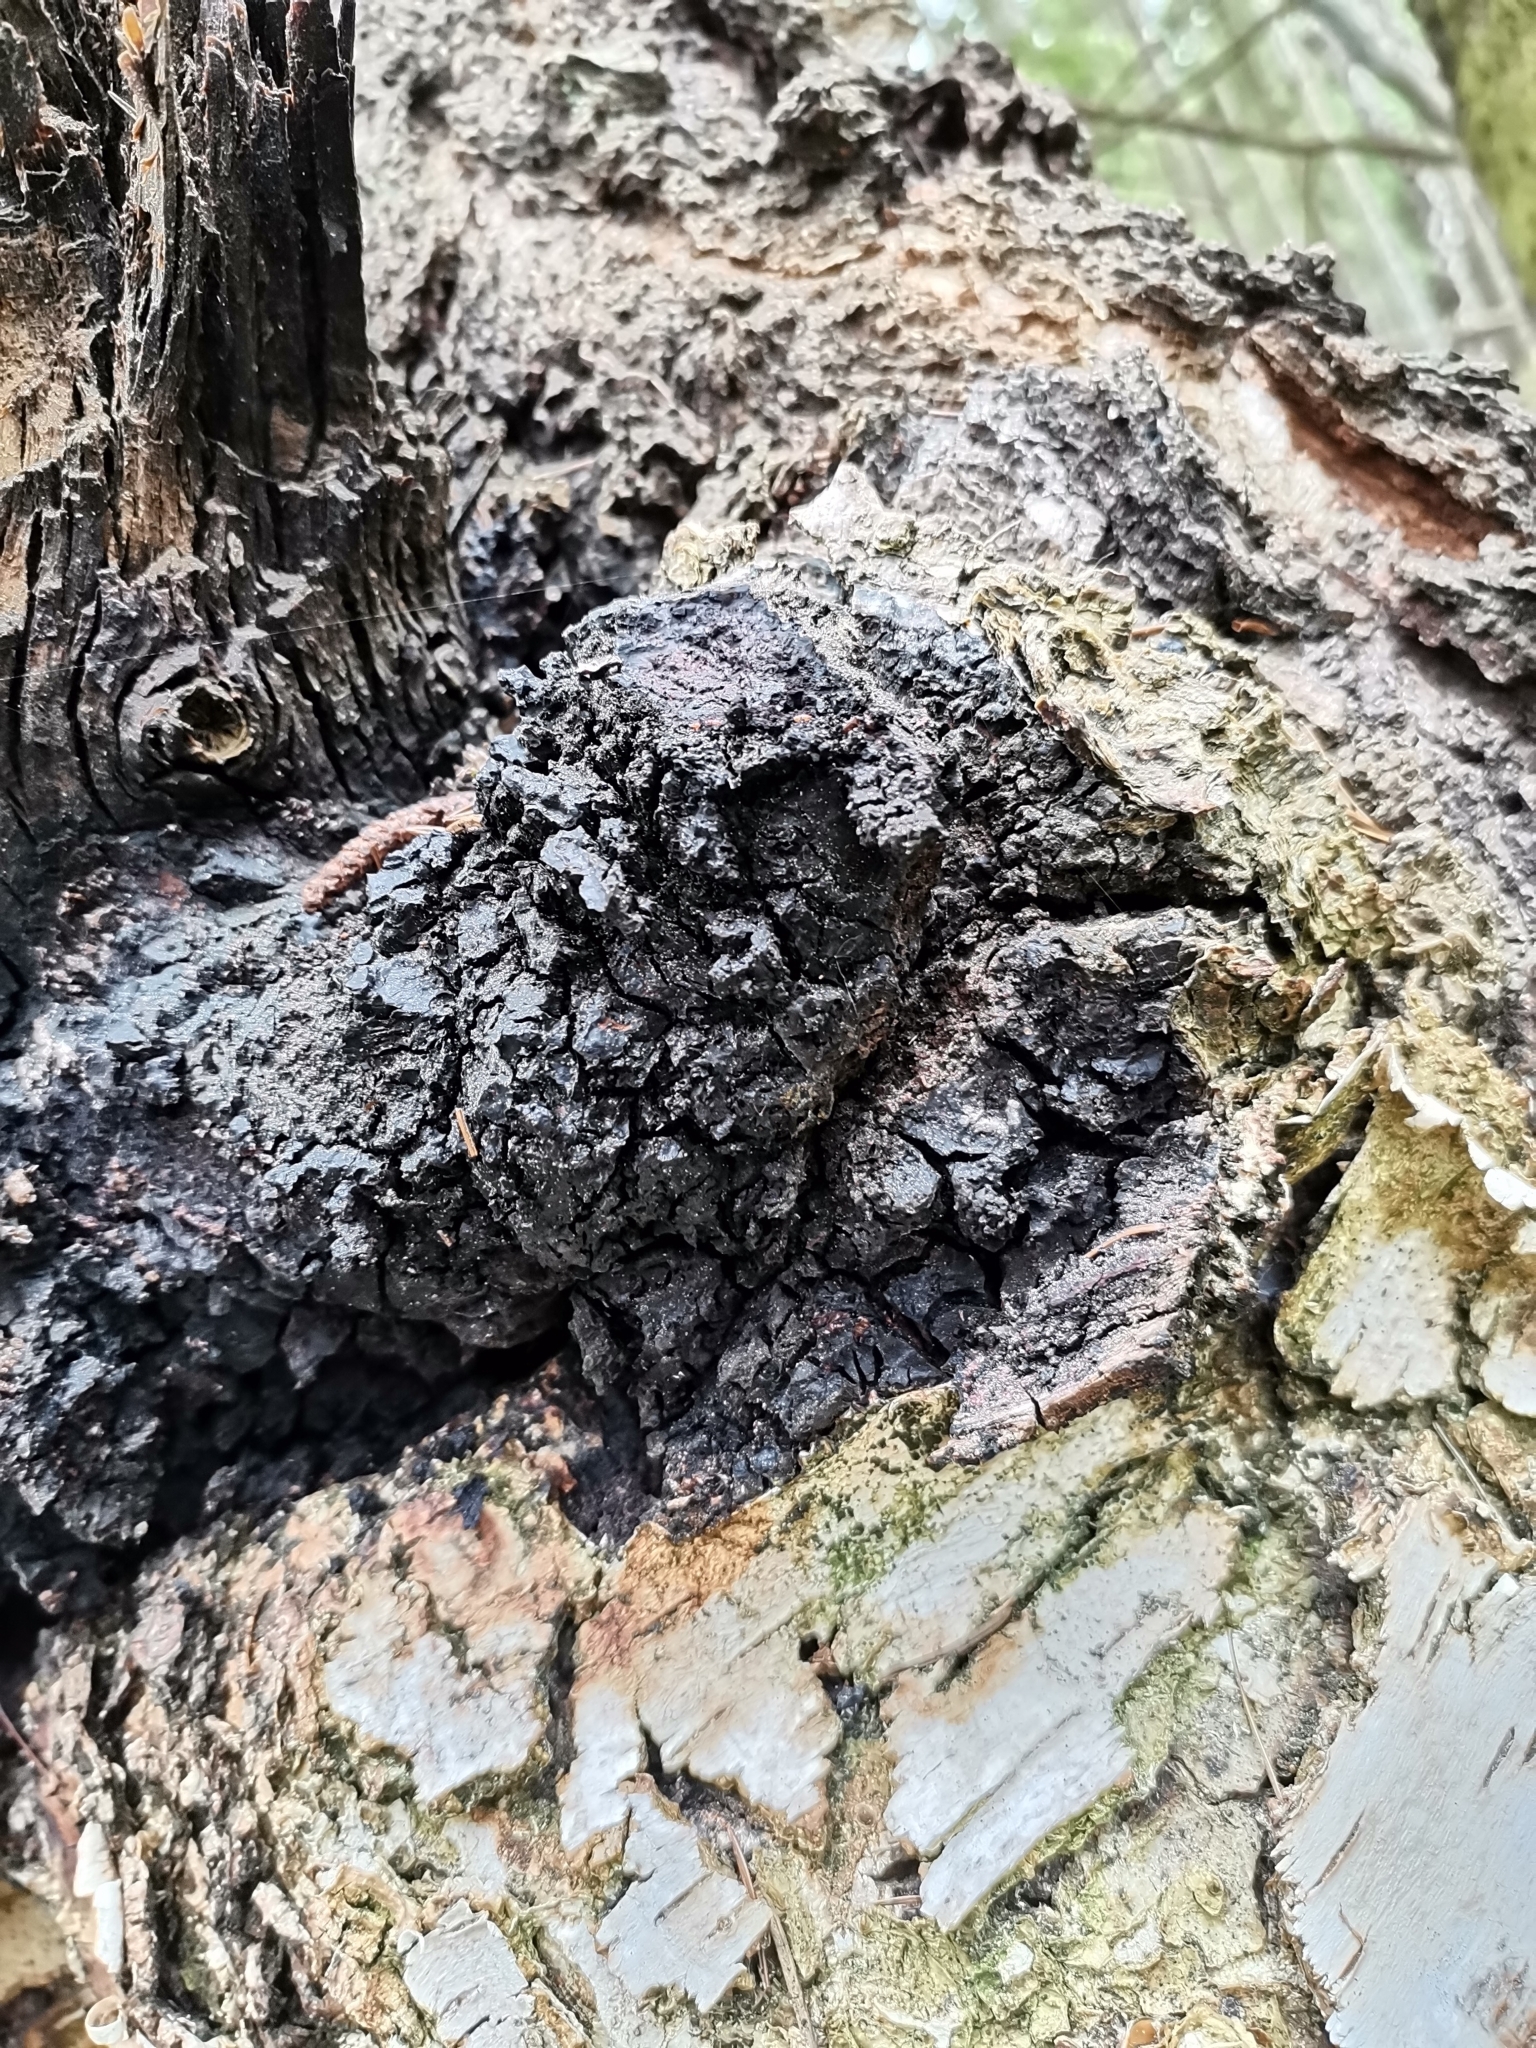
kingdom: Fungi
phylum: Basidiomycota
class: Agaricomycetes
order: Hymenochaetales
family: Hymenochaetaceae
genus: Inonotus
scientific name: Inonotus obliquus
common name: Chaga
